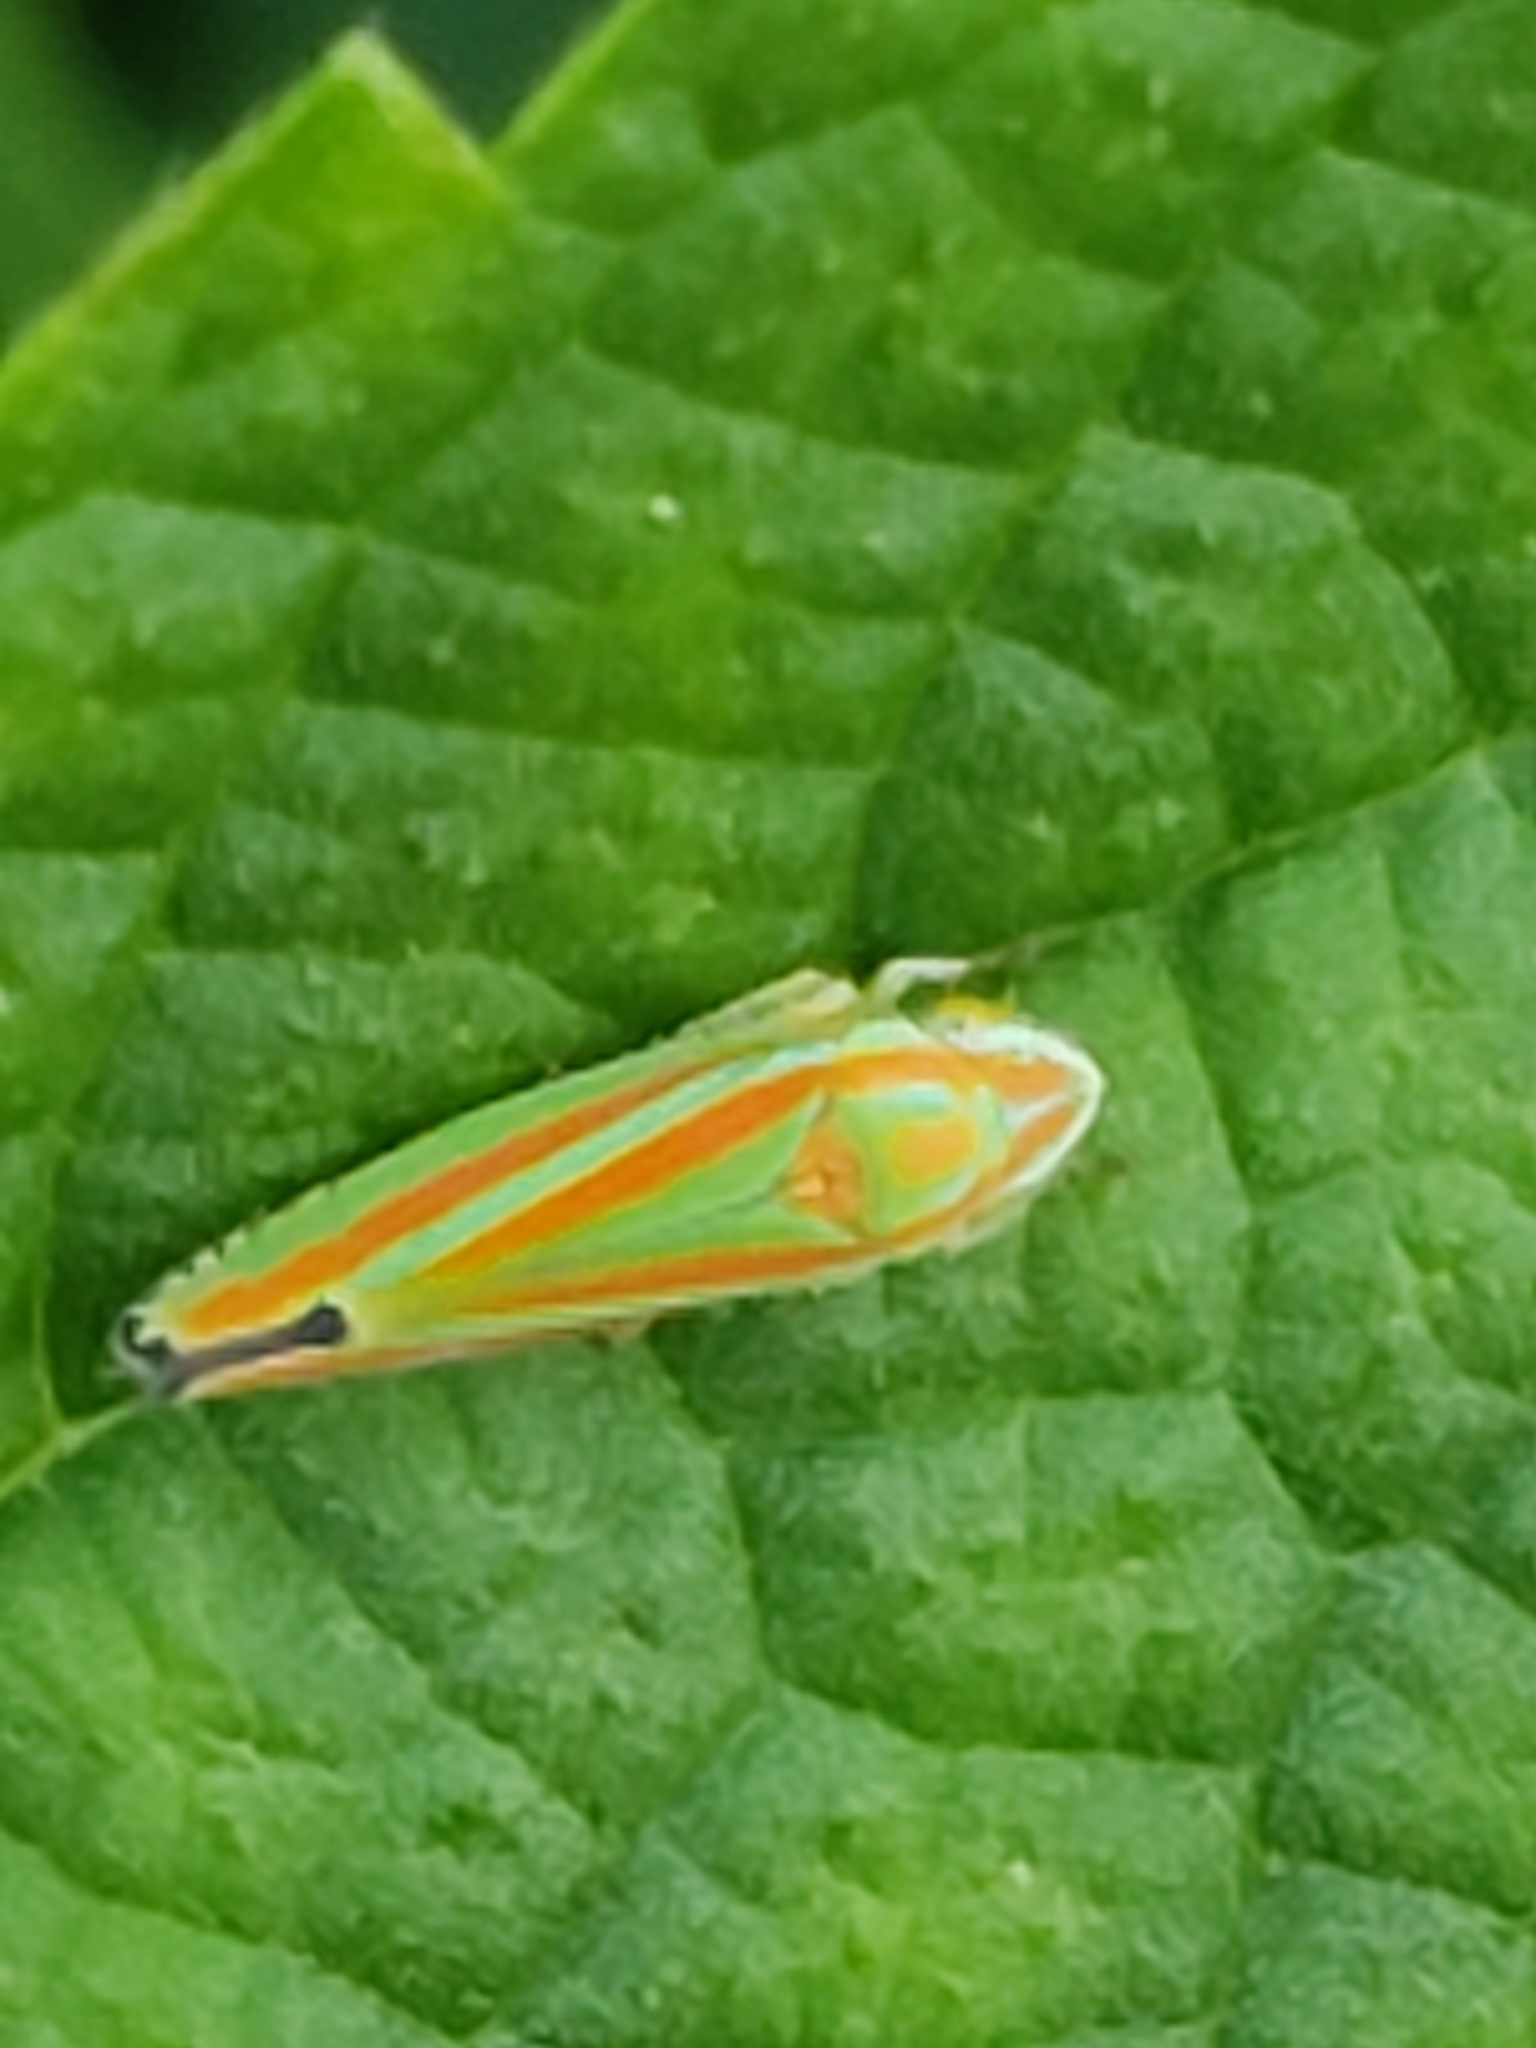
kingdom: Animalia
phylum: Arthropoda
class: Insecta
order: Hemiptera
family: Cicadellidae
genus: Graphocephala
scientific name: Graphocephala versuta
